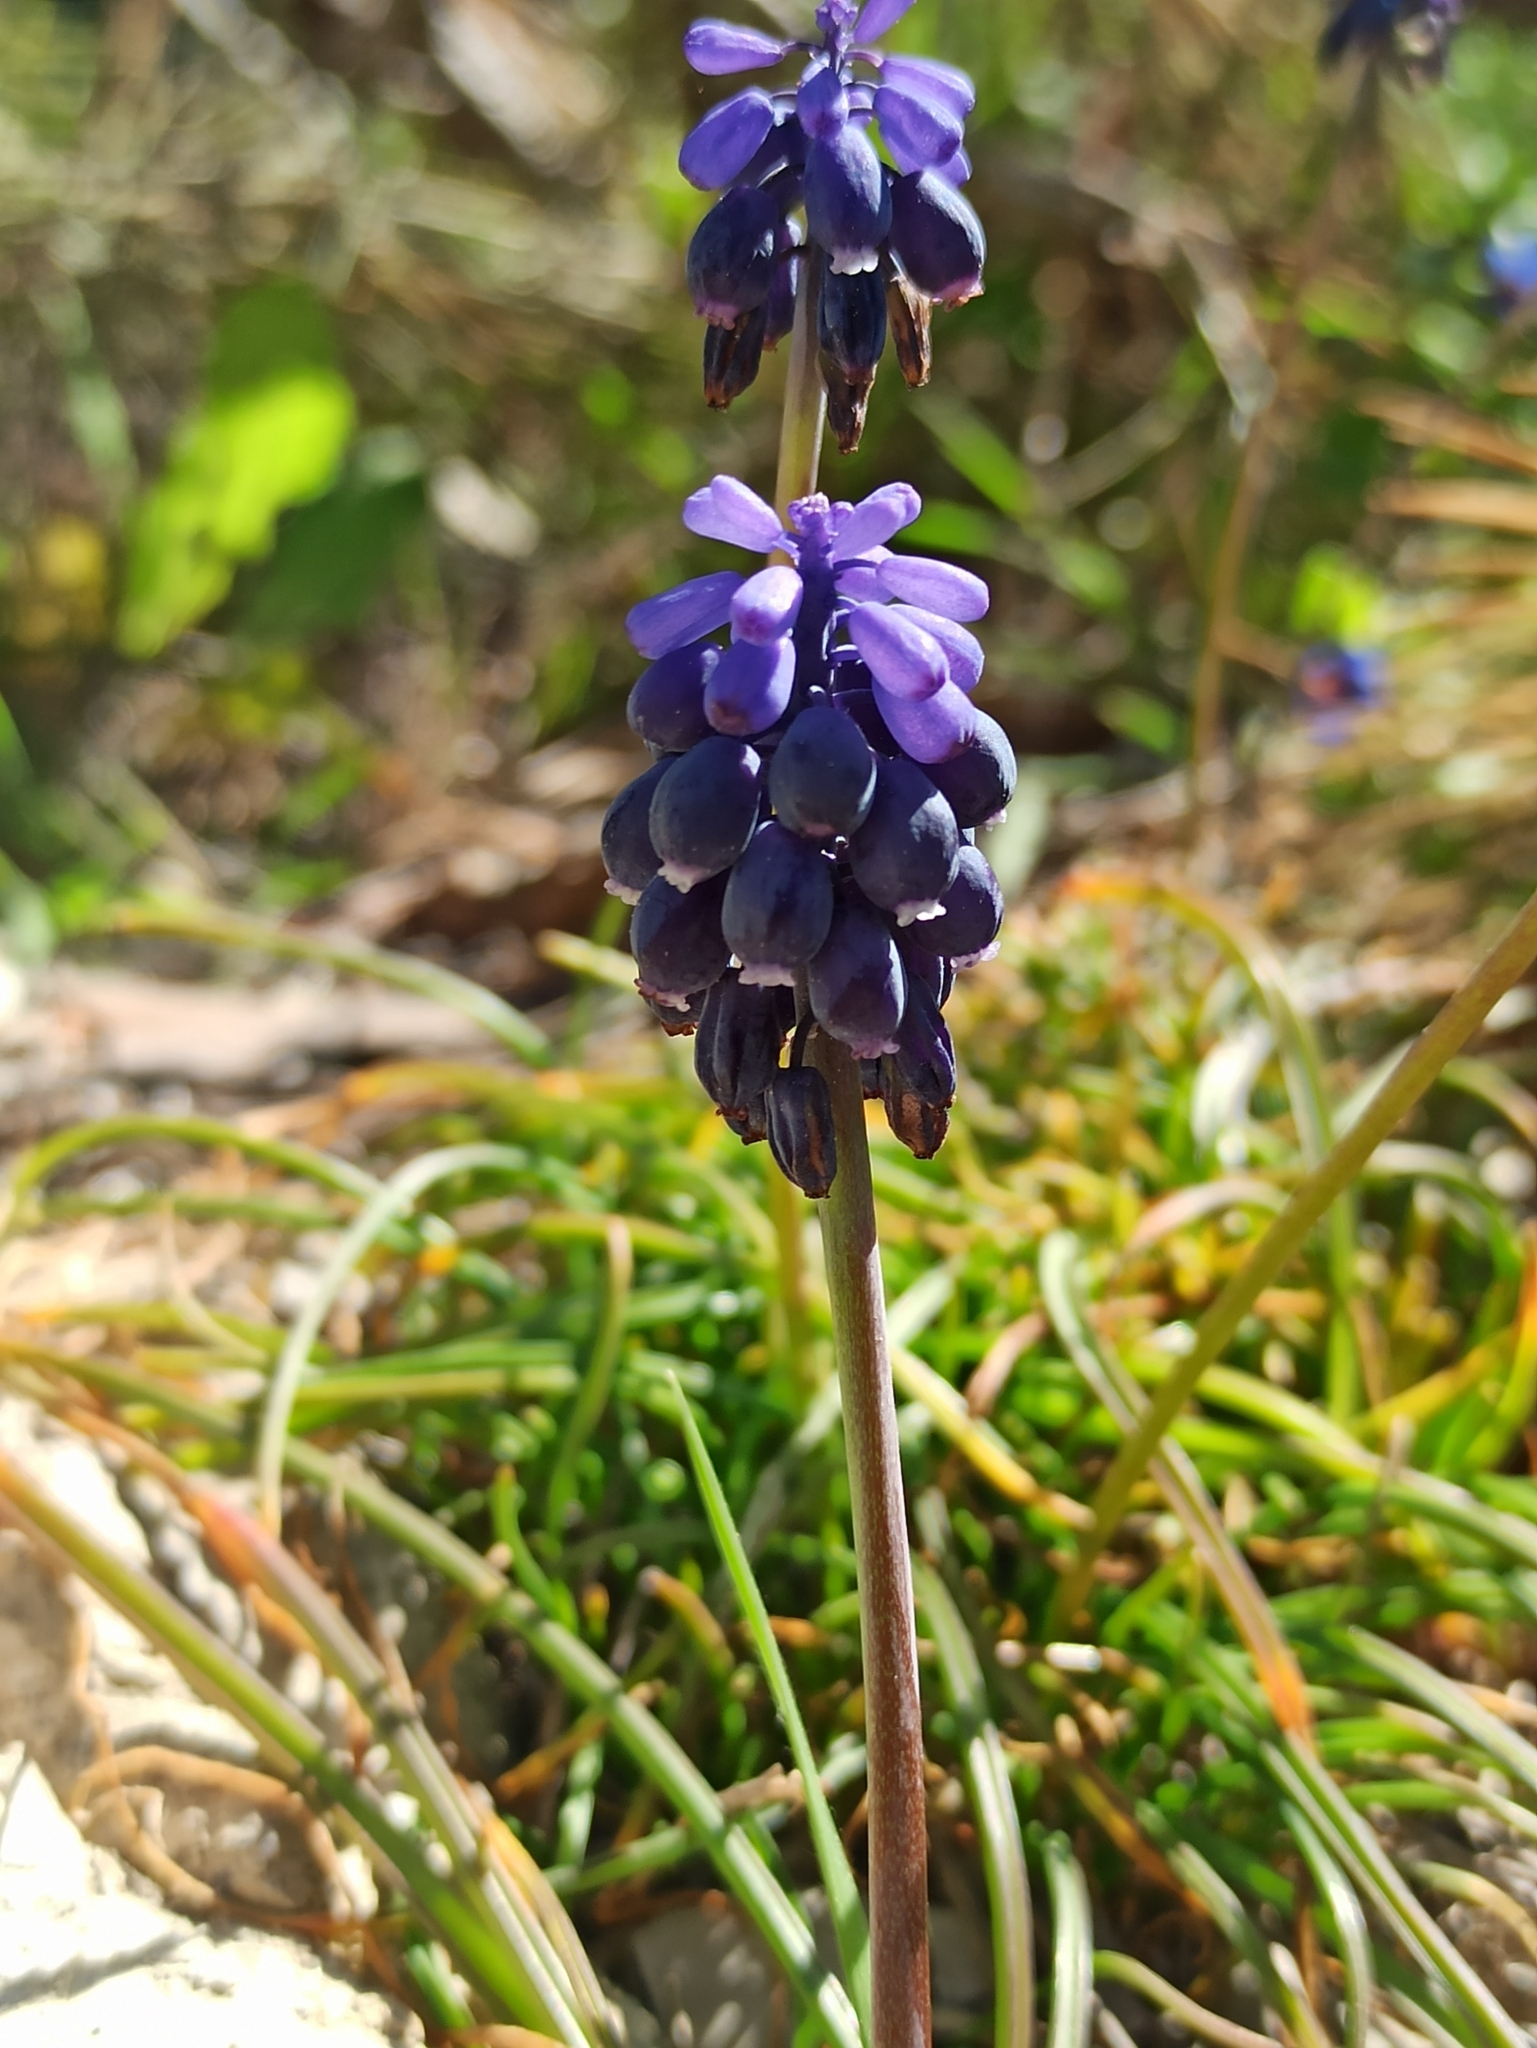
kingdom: Plantae
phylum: Tracheophyta
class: Liliopsida
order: Asparagales
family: Asparagaceae
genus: Muscari
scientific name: Muscari neglectum
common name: Grape-hyacinth
